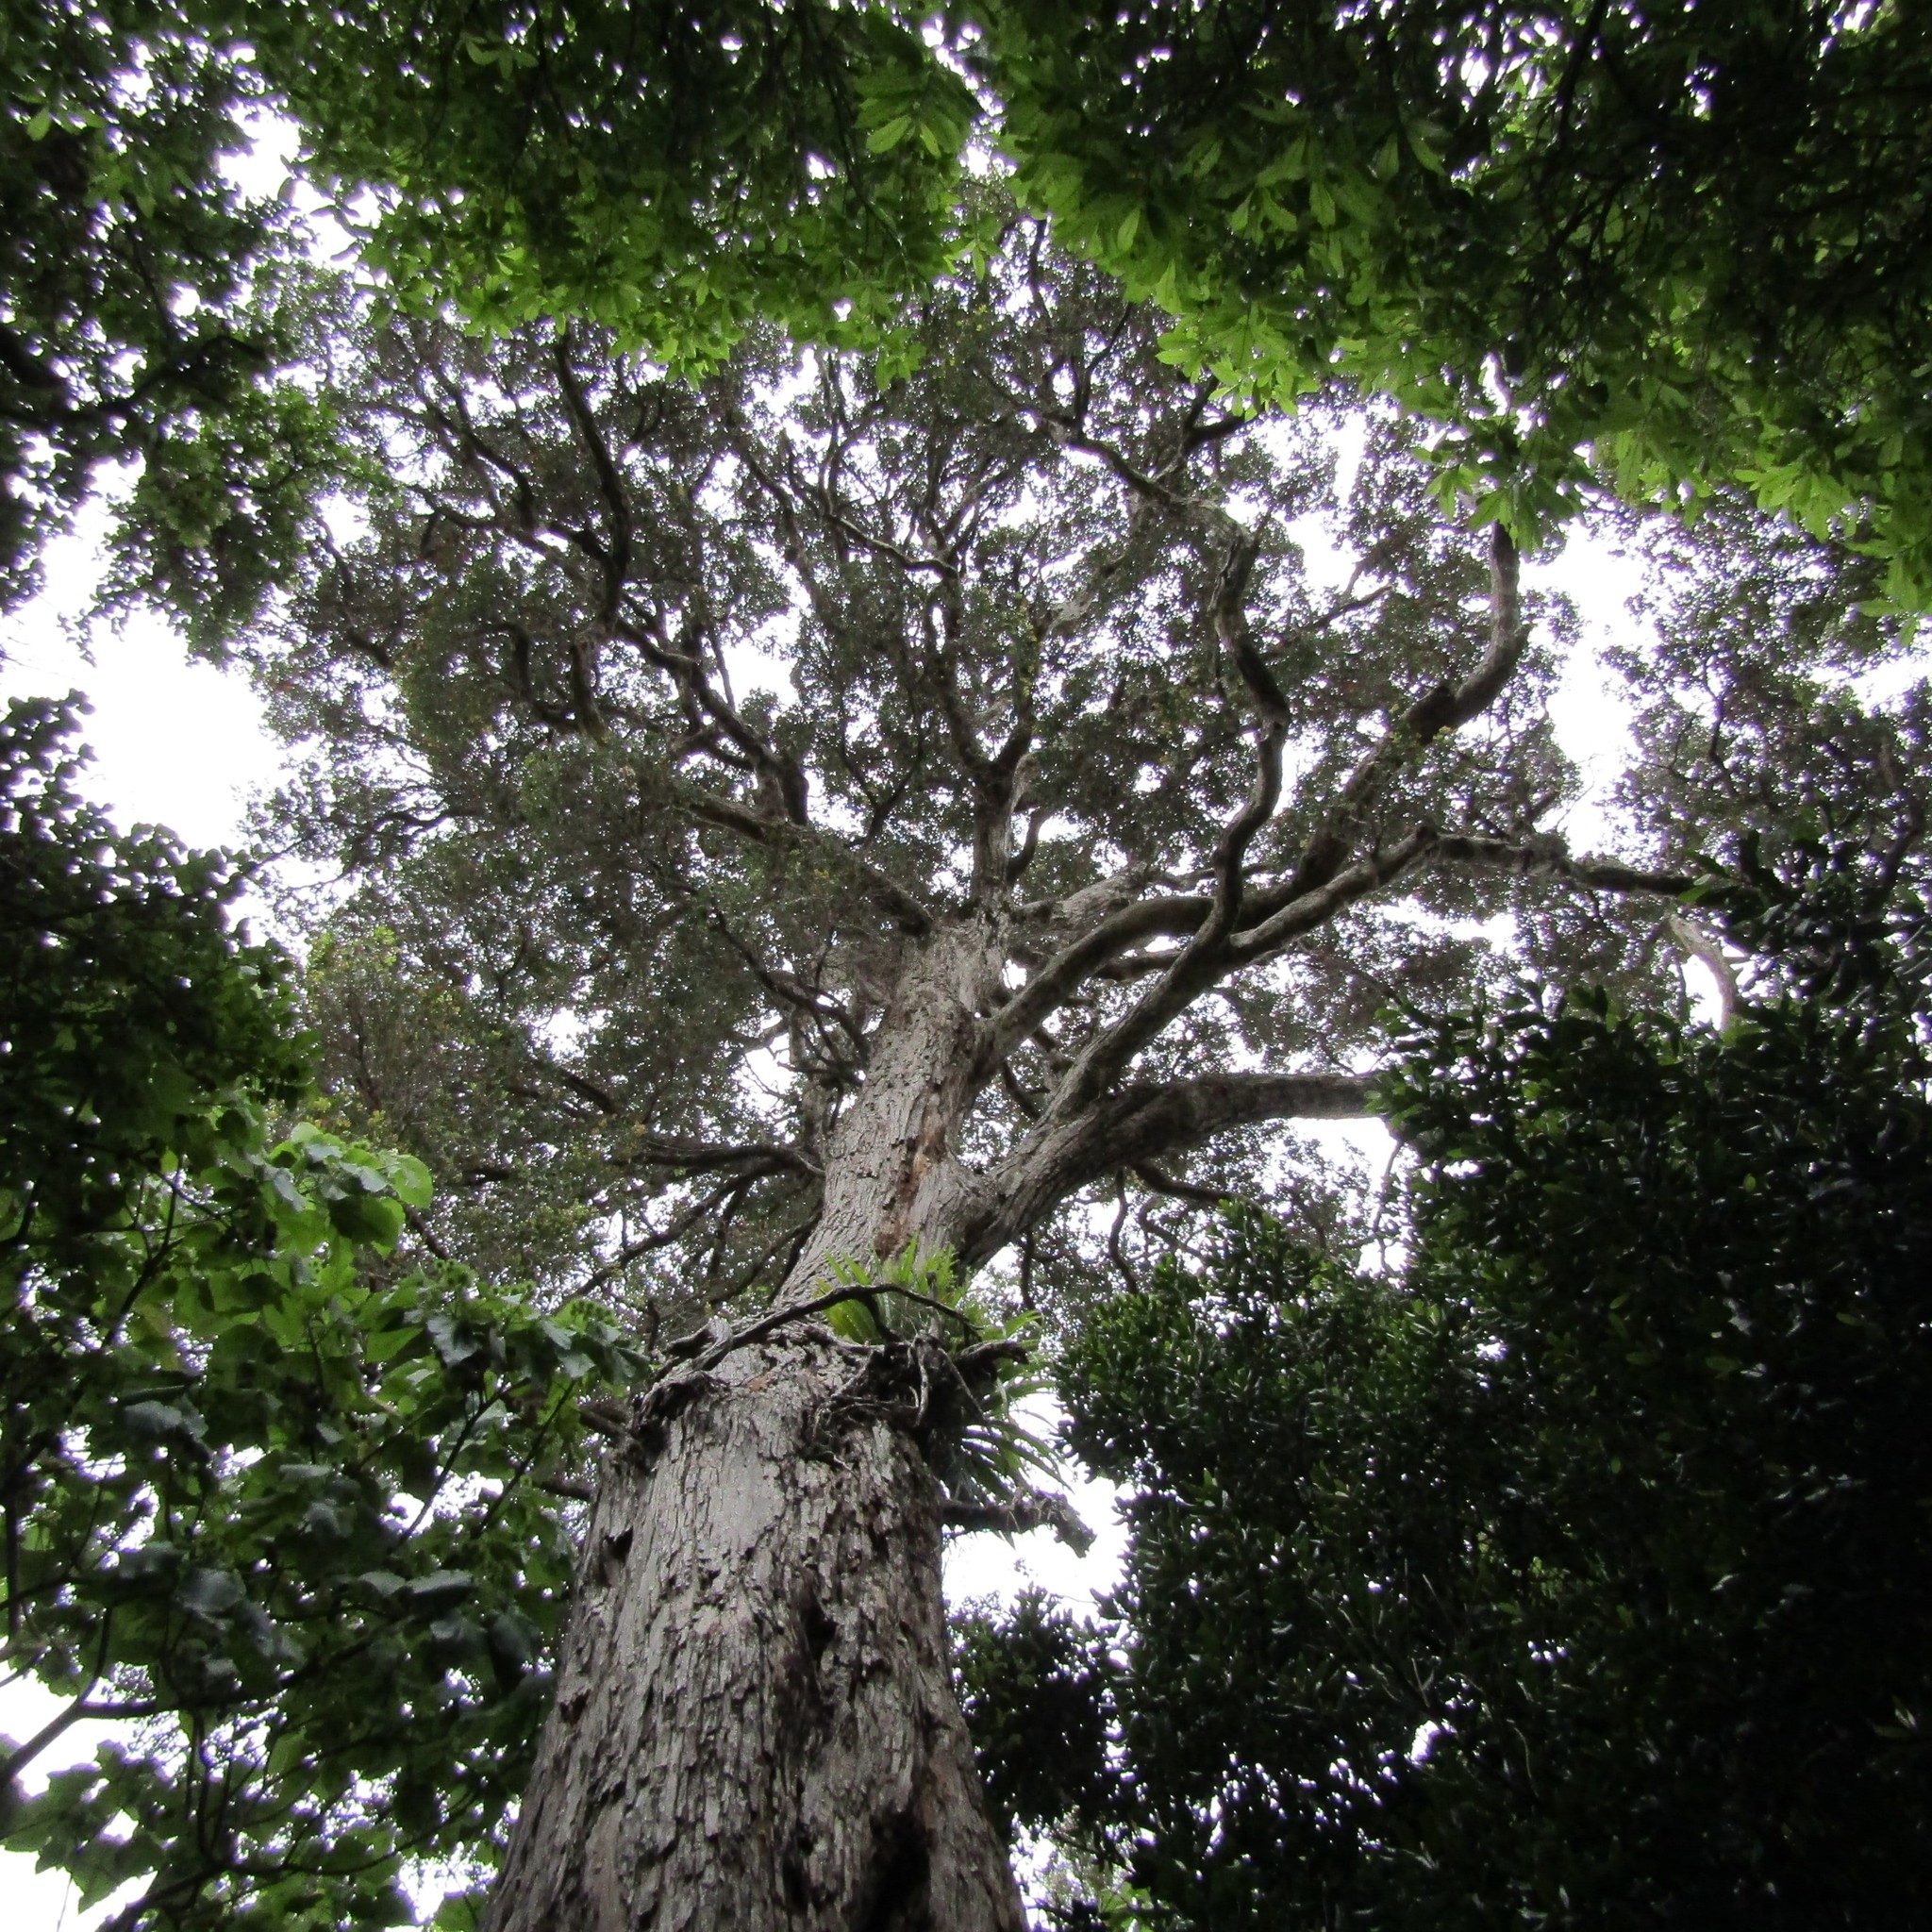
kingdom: Plantae
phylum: Tracheophyta
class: Magnoliopsida
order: Myrtales
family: Myrtaceae
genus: Metrosideros
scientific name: Metrosideros robusta
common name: Northern rata
